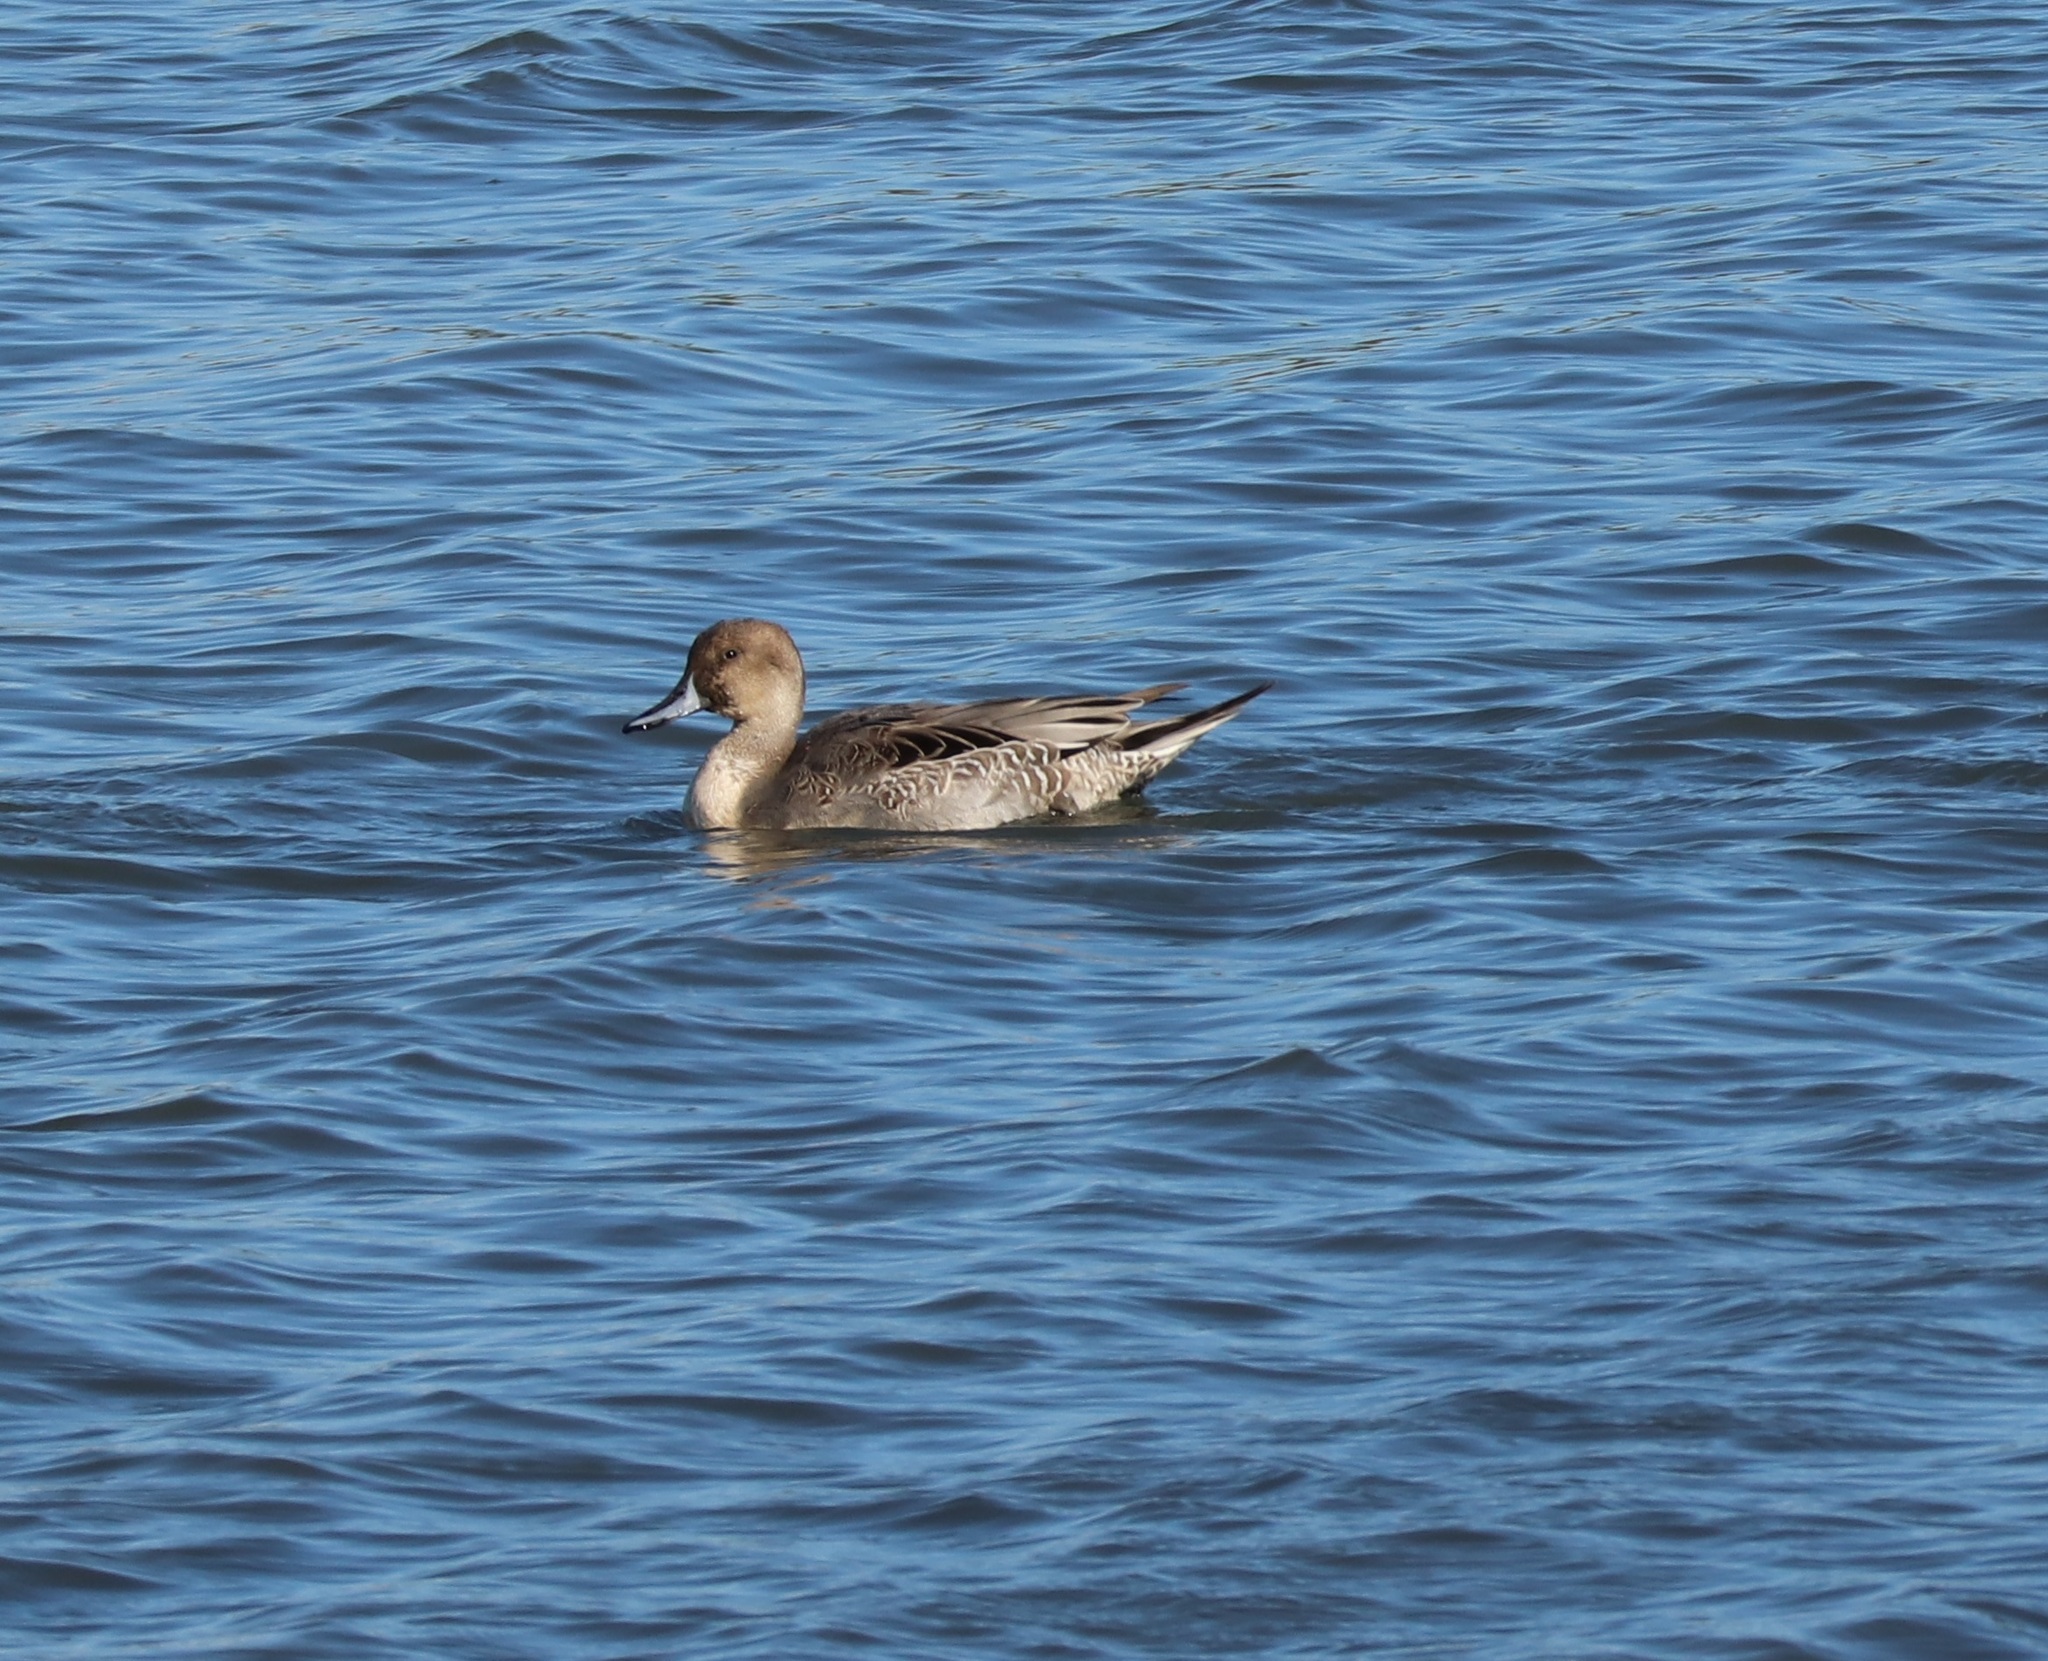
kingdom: Animalia
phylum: Chordata
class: Aves
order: Anseriformes
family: Anatidae
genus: Anas
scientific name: Anas acuta
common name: Northern pintail
